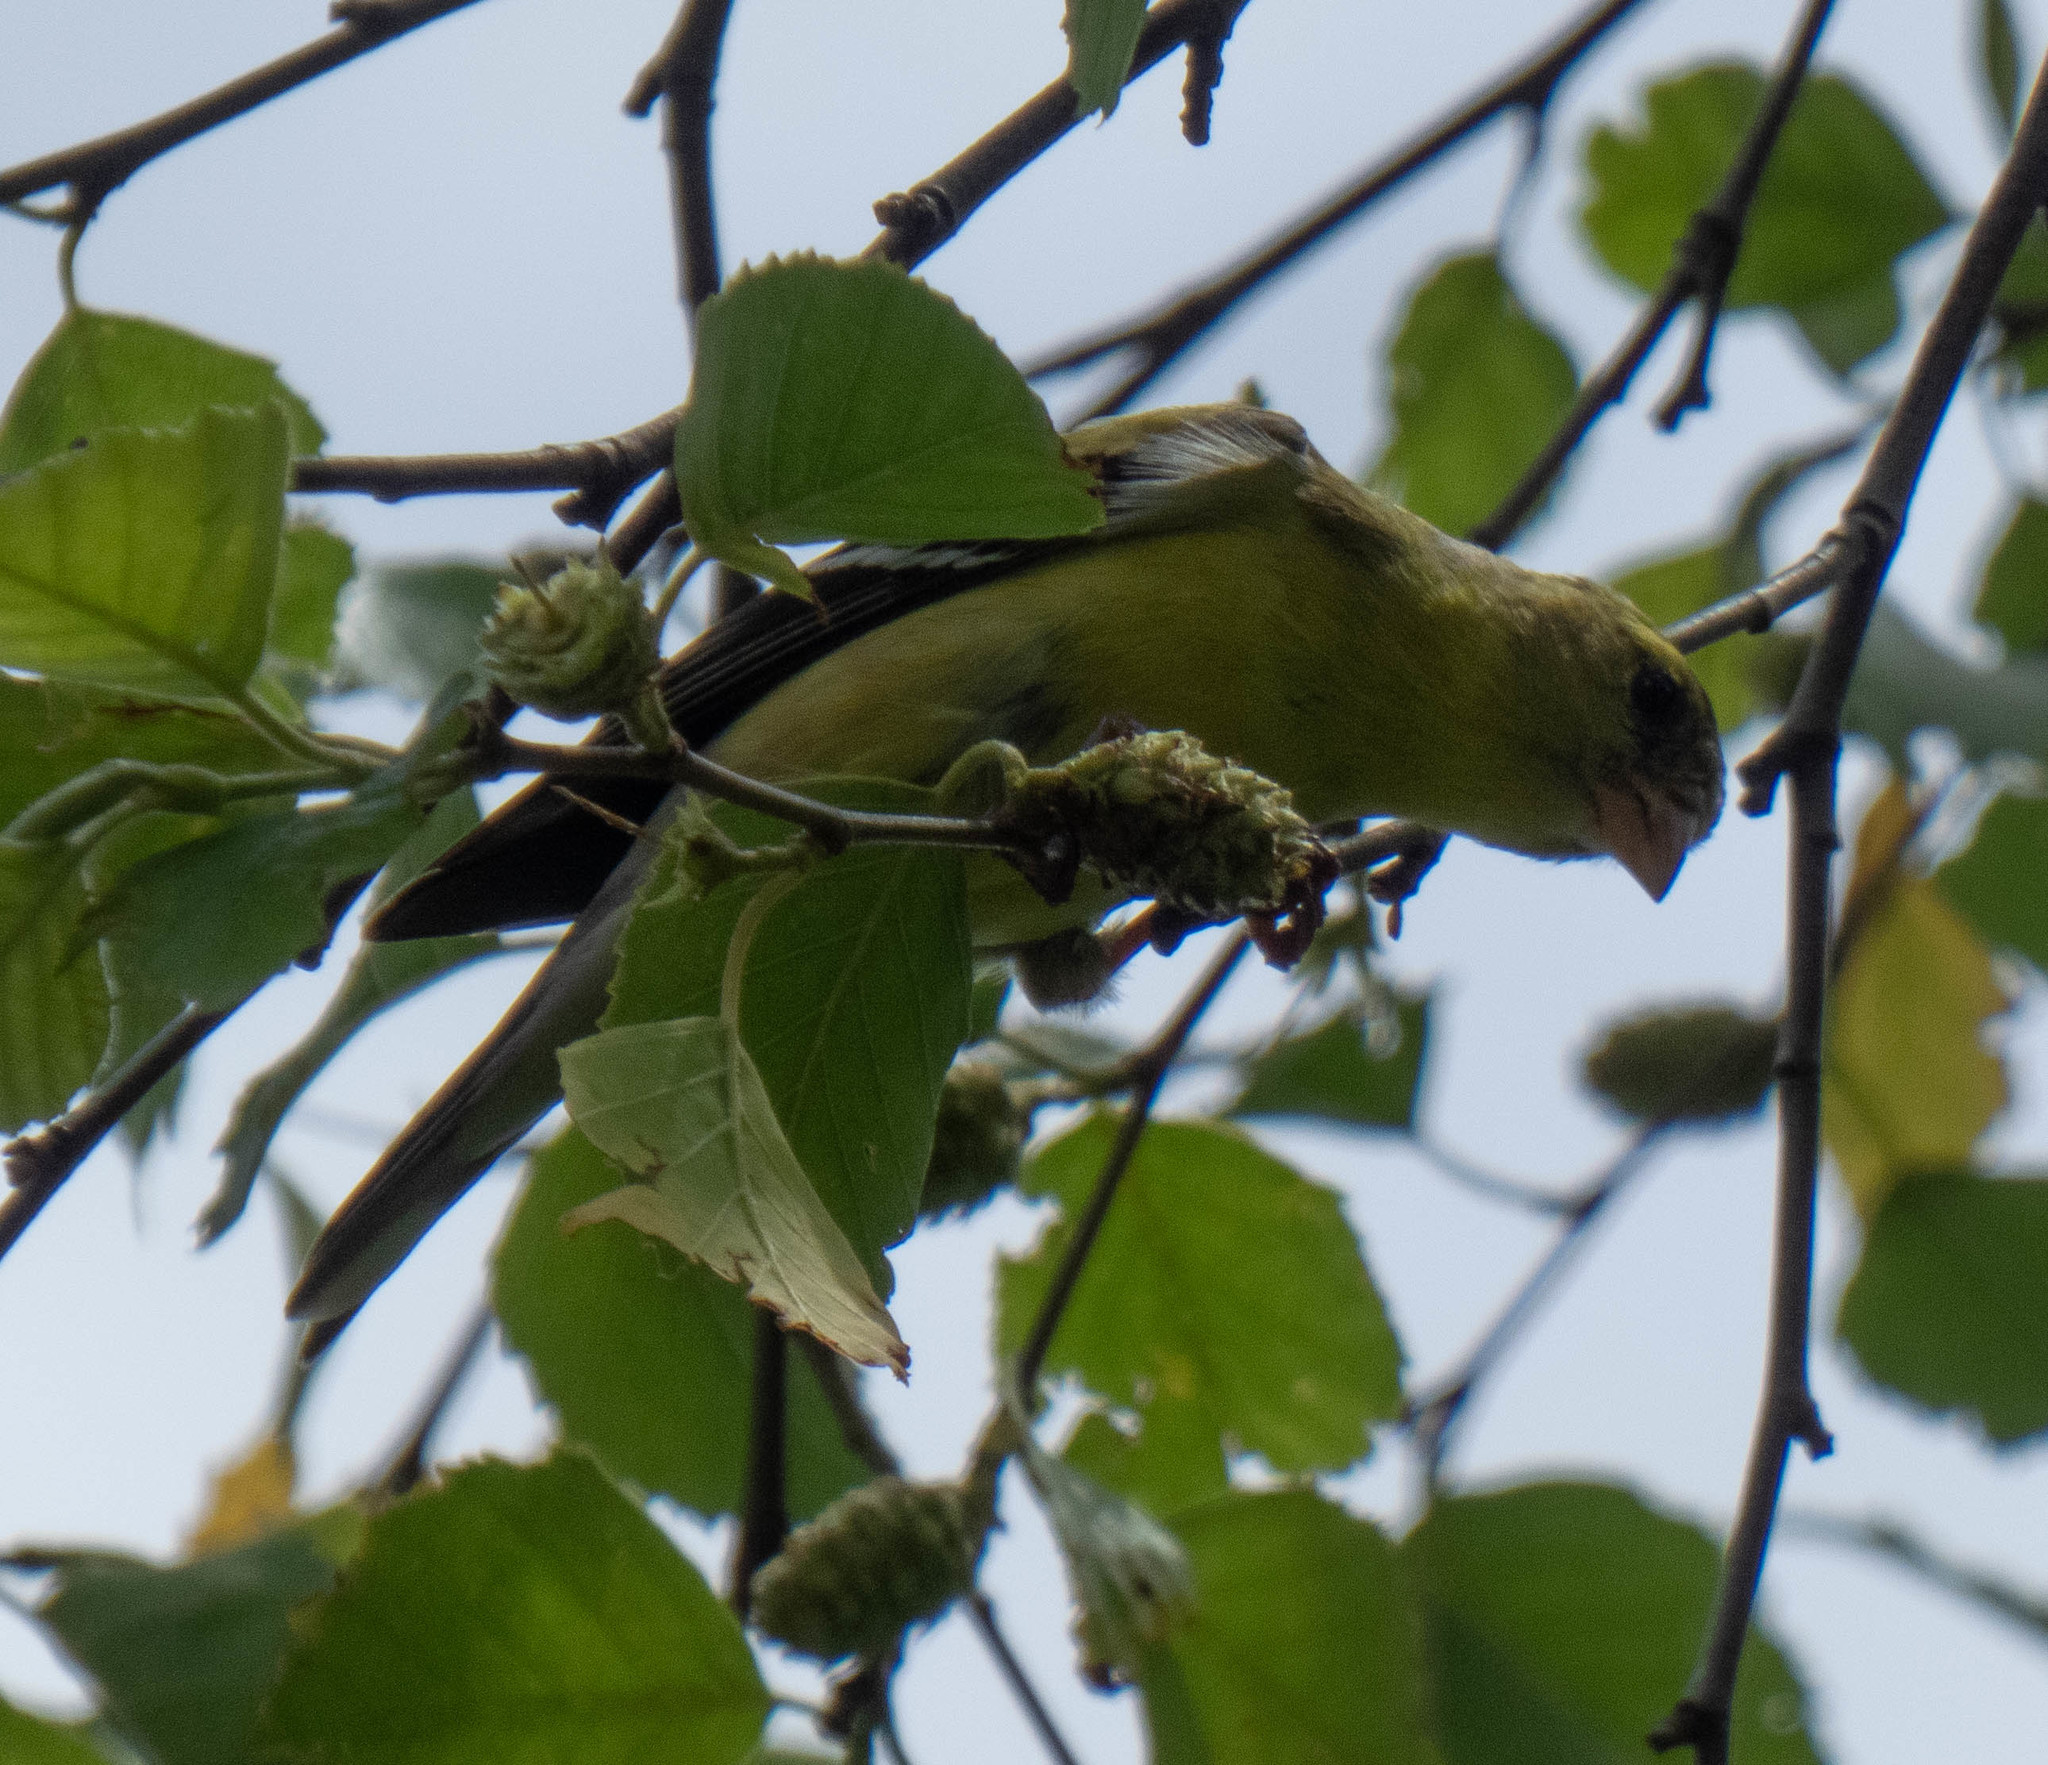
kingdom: Animalia
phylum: Chordata
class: Aves
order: Passeriformes
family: Fringillidae
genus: Spinus
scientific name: Spinus tristis
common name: American goldfinch
